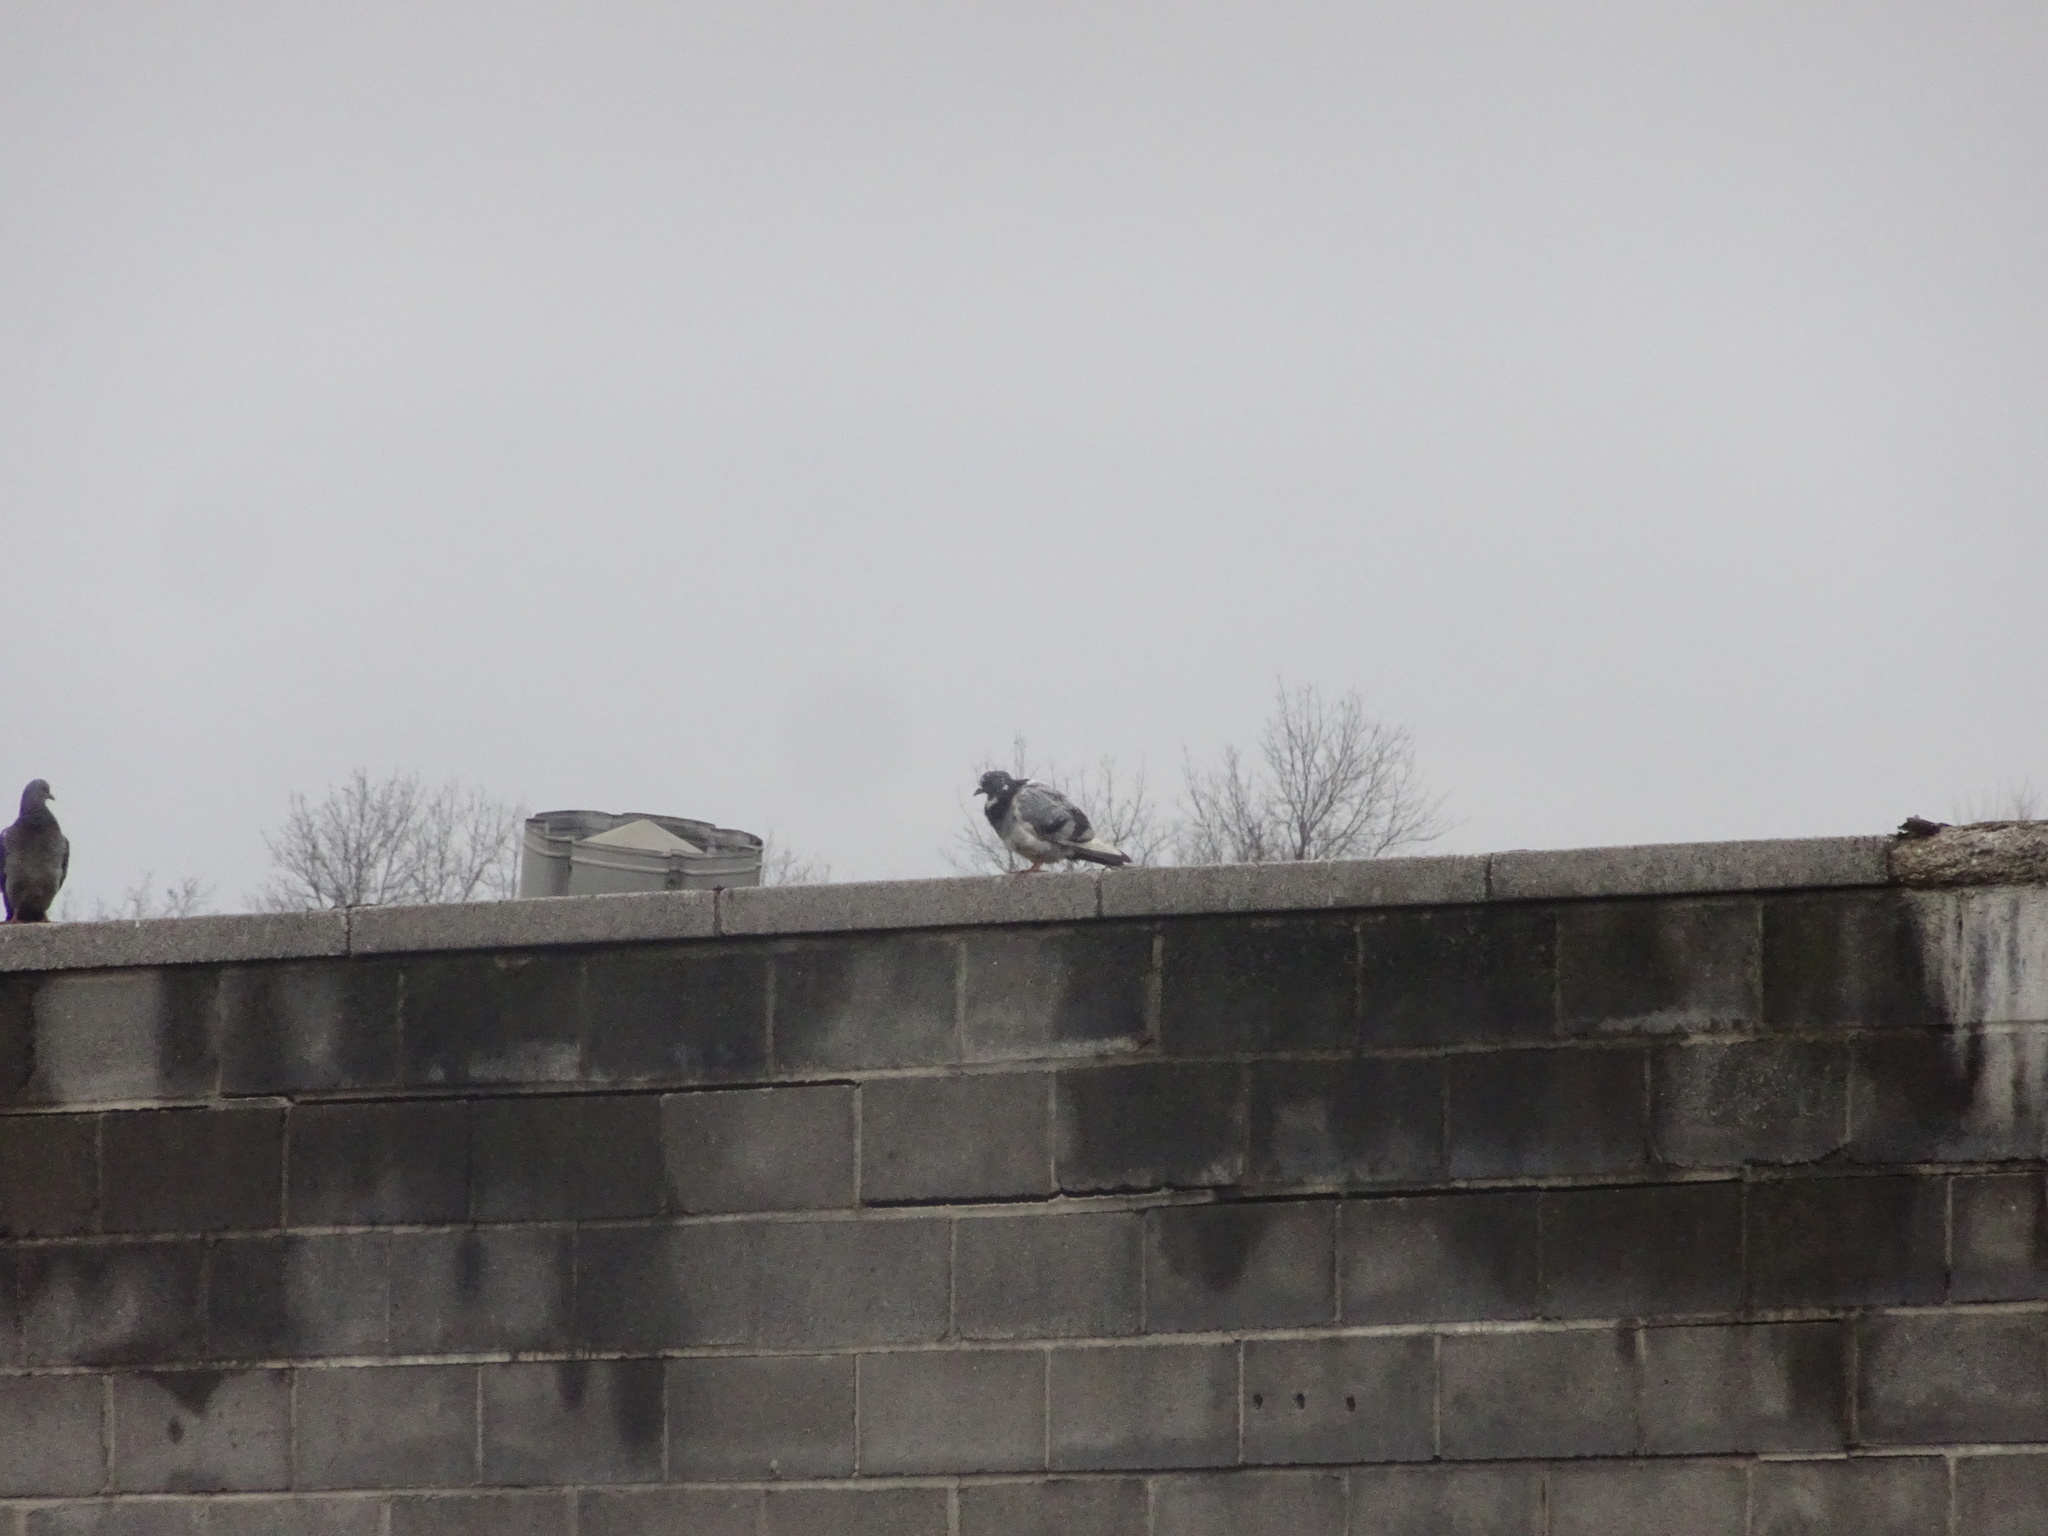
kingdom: Animalia
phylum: Chordata
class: Aves
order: Columbiformes
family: Columbidae
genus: Columba
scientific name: Columba livia
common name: Rock pigeon
